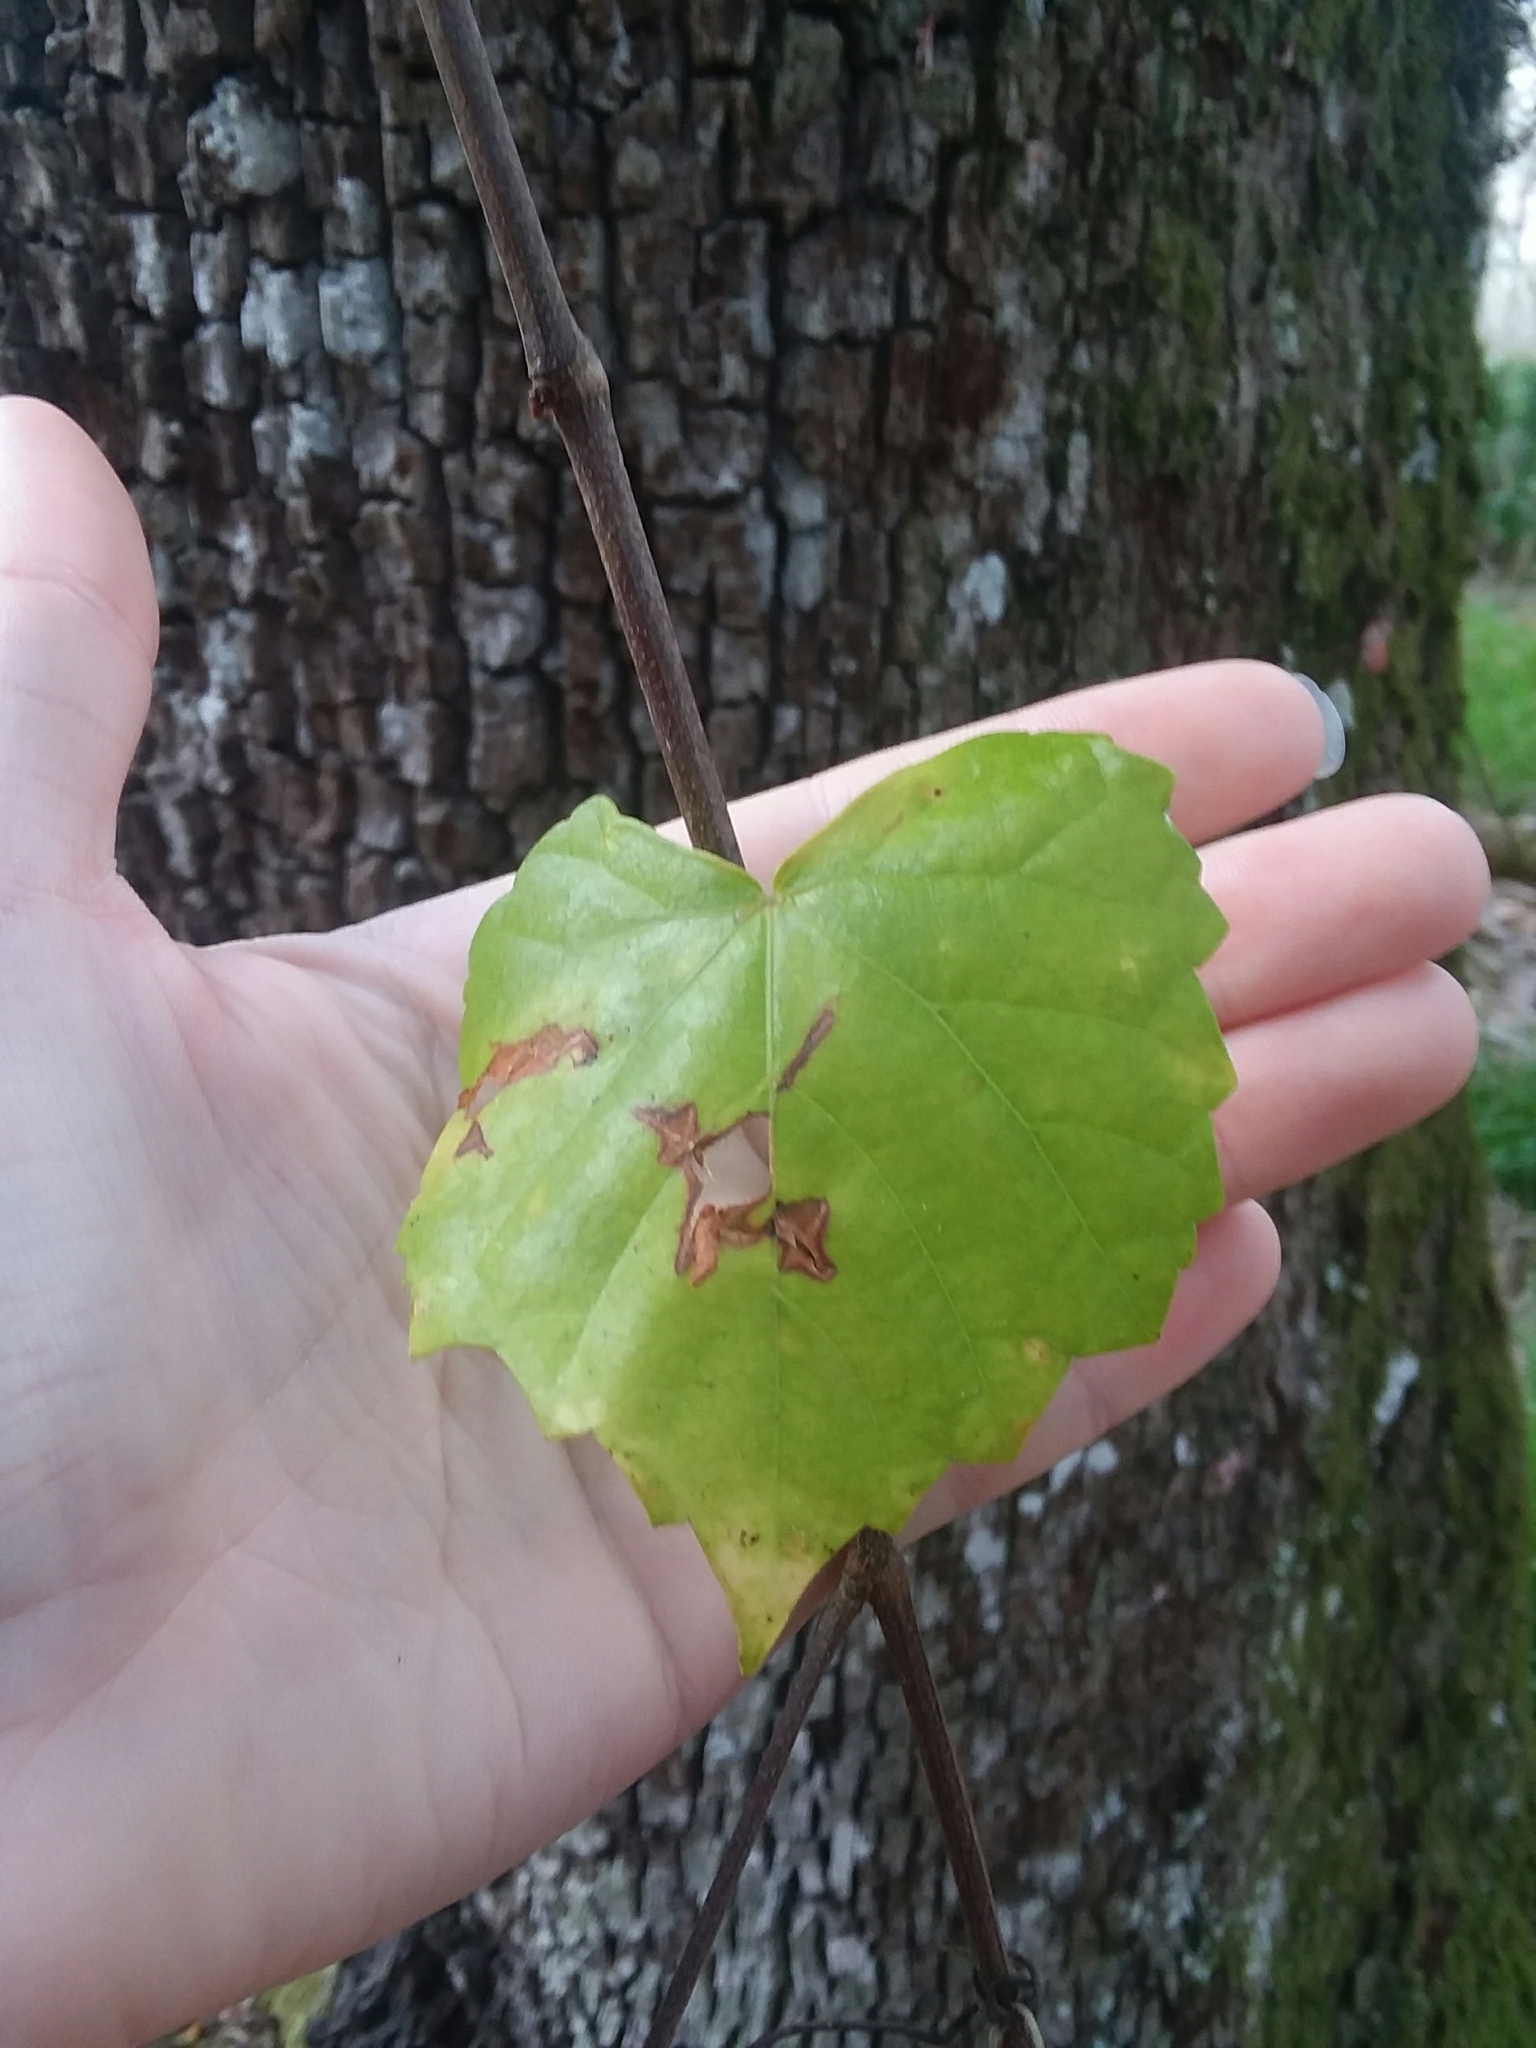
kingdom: Plantae
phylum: Tracheophyta
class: Magnoliopsida
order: Vitales
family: Vitaceae
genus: Vitis
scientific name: Vitis rotundifolia
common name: Muscadine grape
